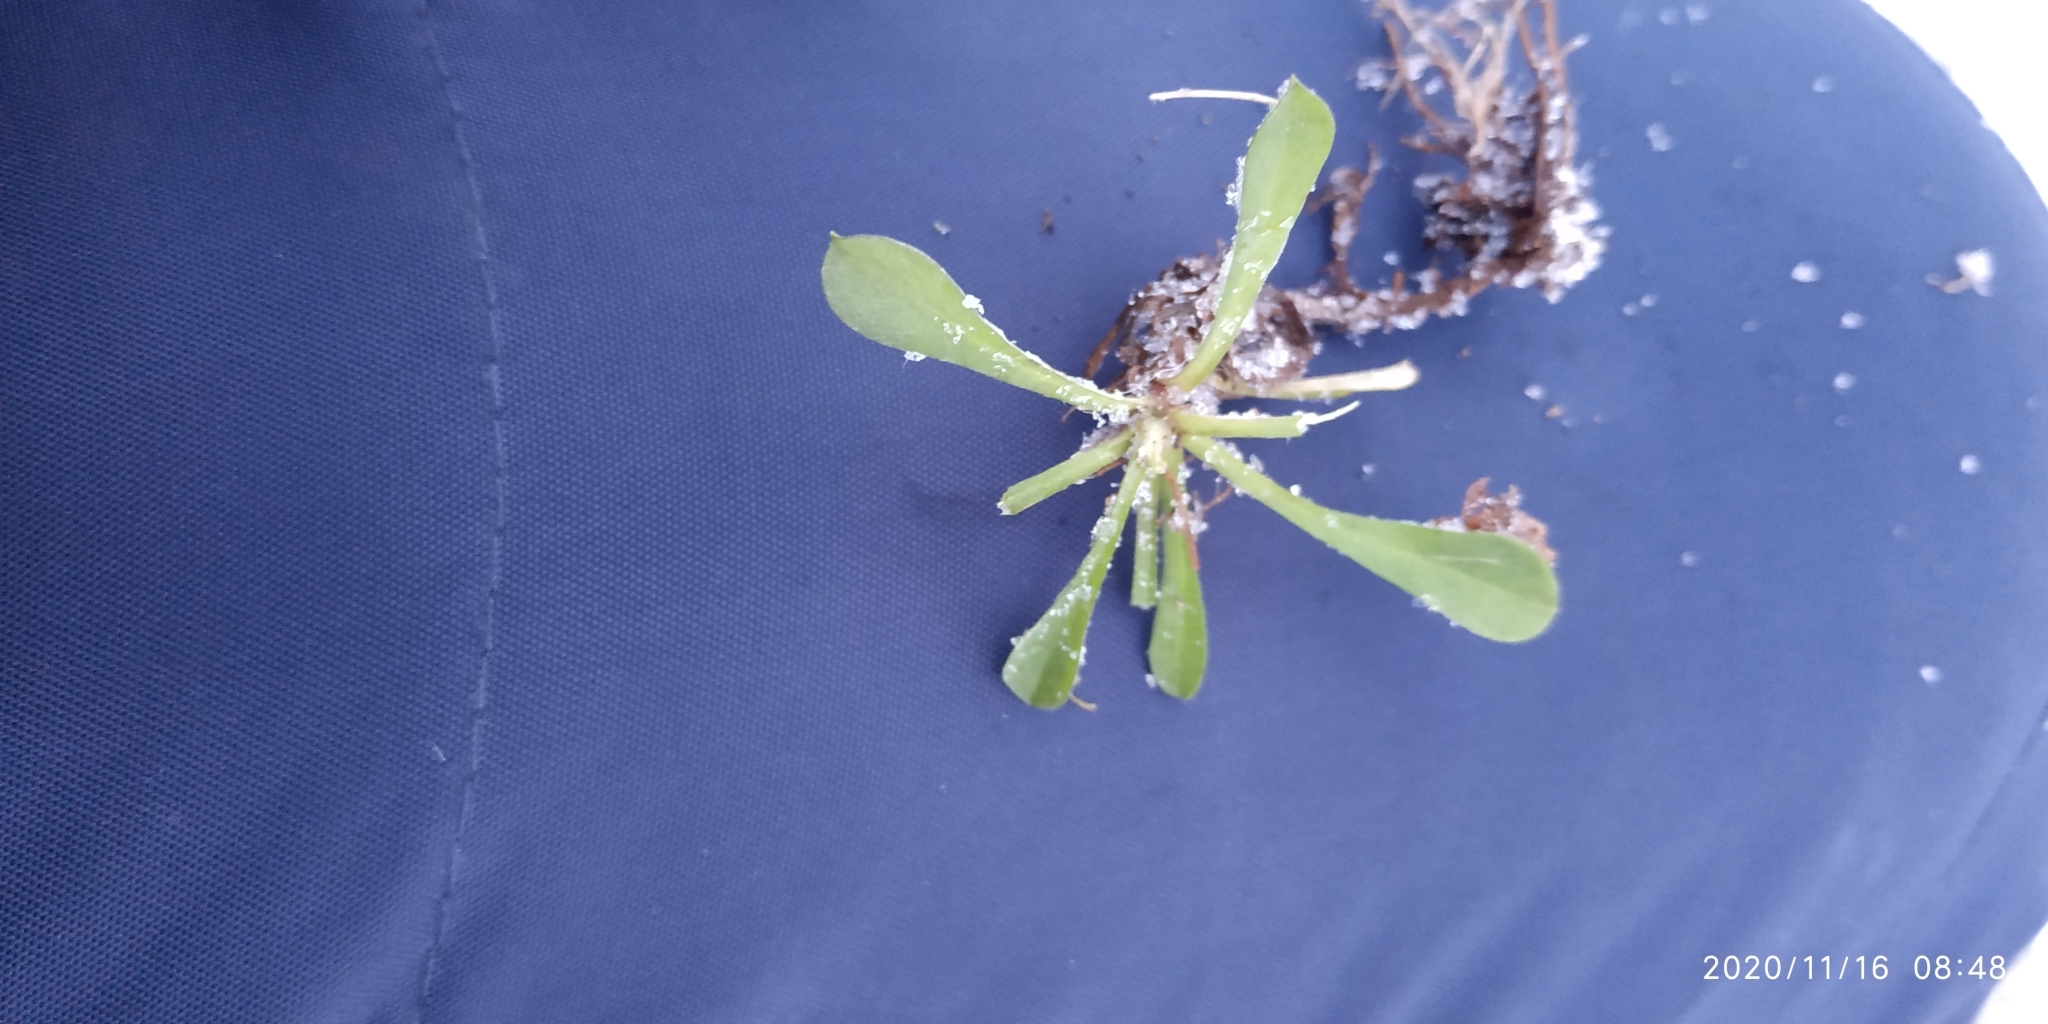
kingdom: Plantae
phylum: Tracheophyta
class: Magnoliopsida
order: Asterales
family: Asteraceae
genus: Antennaria
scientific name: Antennaria dioica
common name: Mountain everlasting
